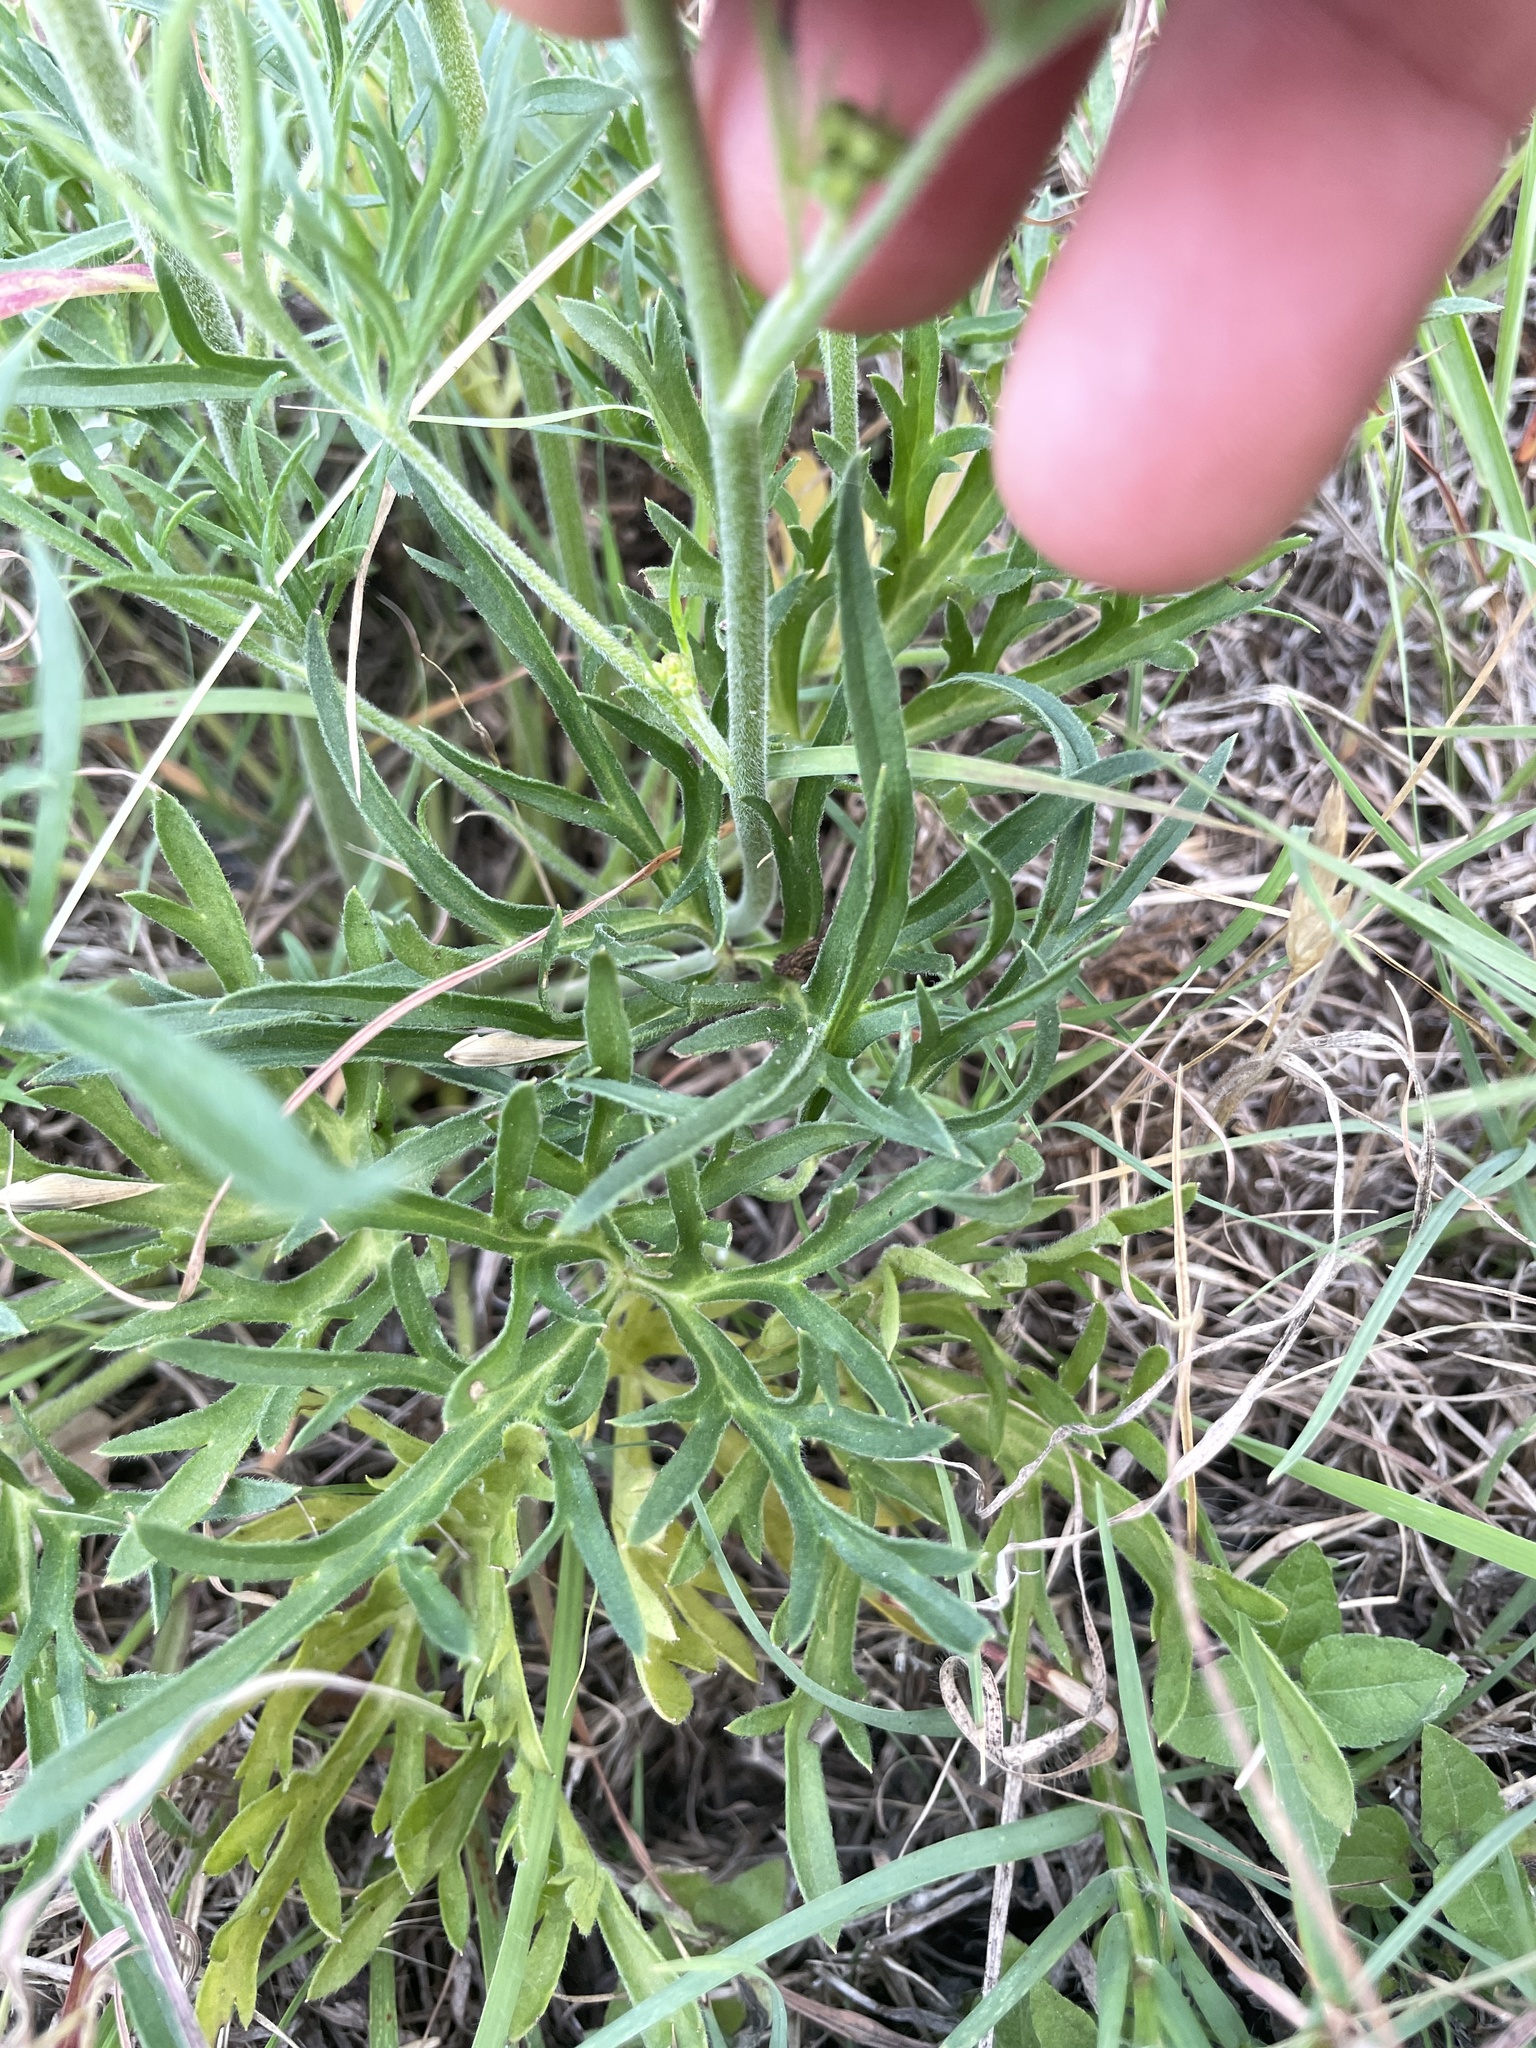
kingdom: Plantae
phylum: Tracheophyta
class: Magnoliopsida
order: Ranunculales
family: Ranunculaceae
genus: Delphinium
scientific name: Delphinium carolinianum
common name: Carolina larkspur
